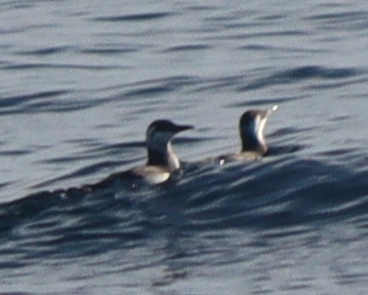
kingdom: Animalia
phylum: Chordata
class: Aves
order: Charadriiformes
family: Alcidae
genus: Uria
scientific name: Uria aalge
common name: Common murre
